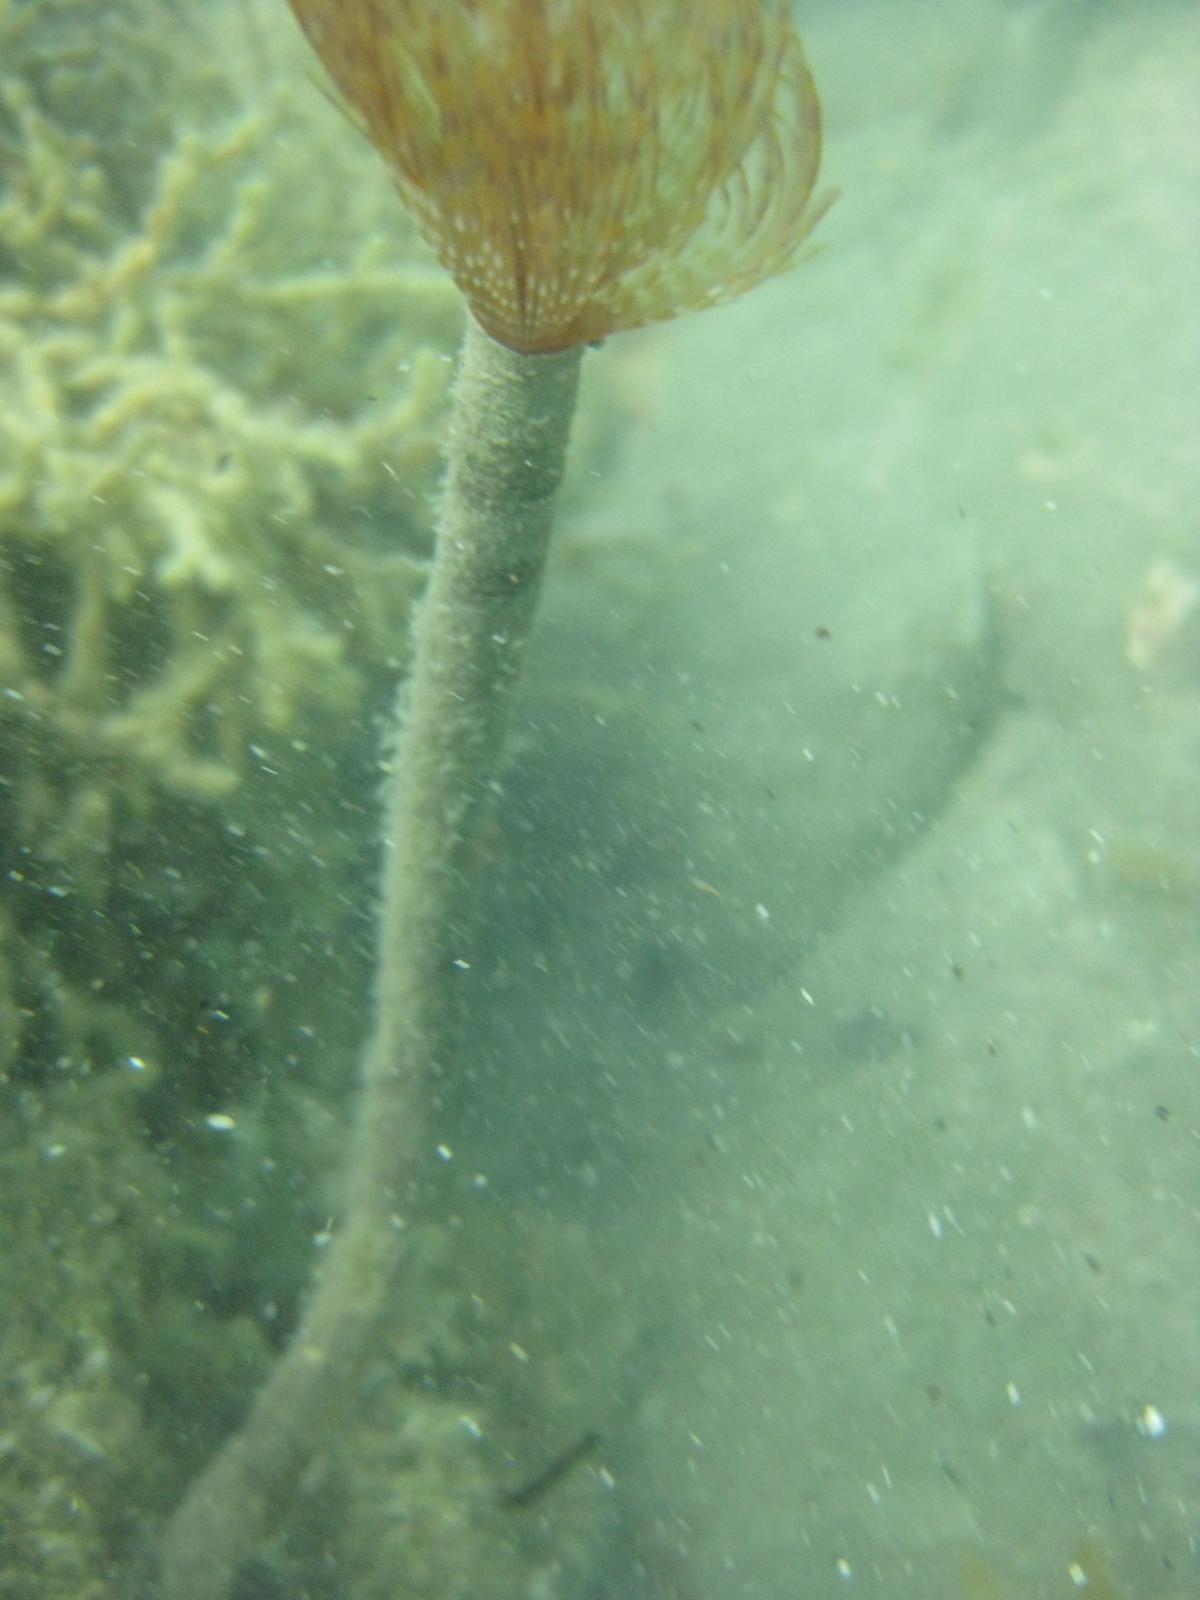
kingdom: Animalia
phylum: Annelida
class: Polychaeta
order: Sabellida
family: Sabellidae
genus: Sabella
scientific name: Sabella spallanzanii
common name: Feather duster worm
